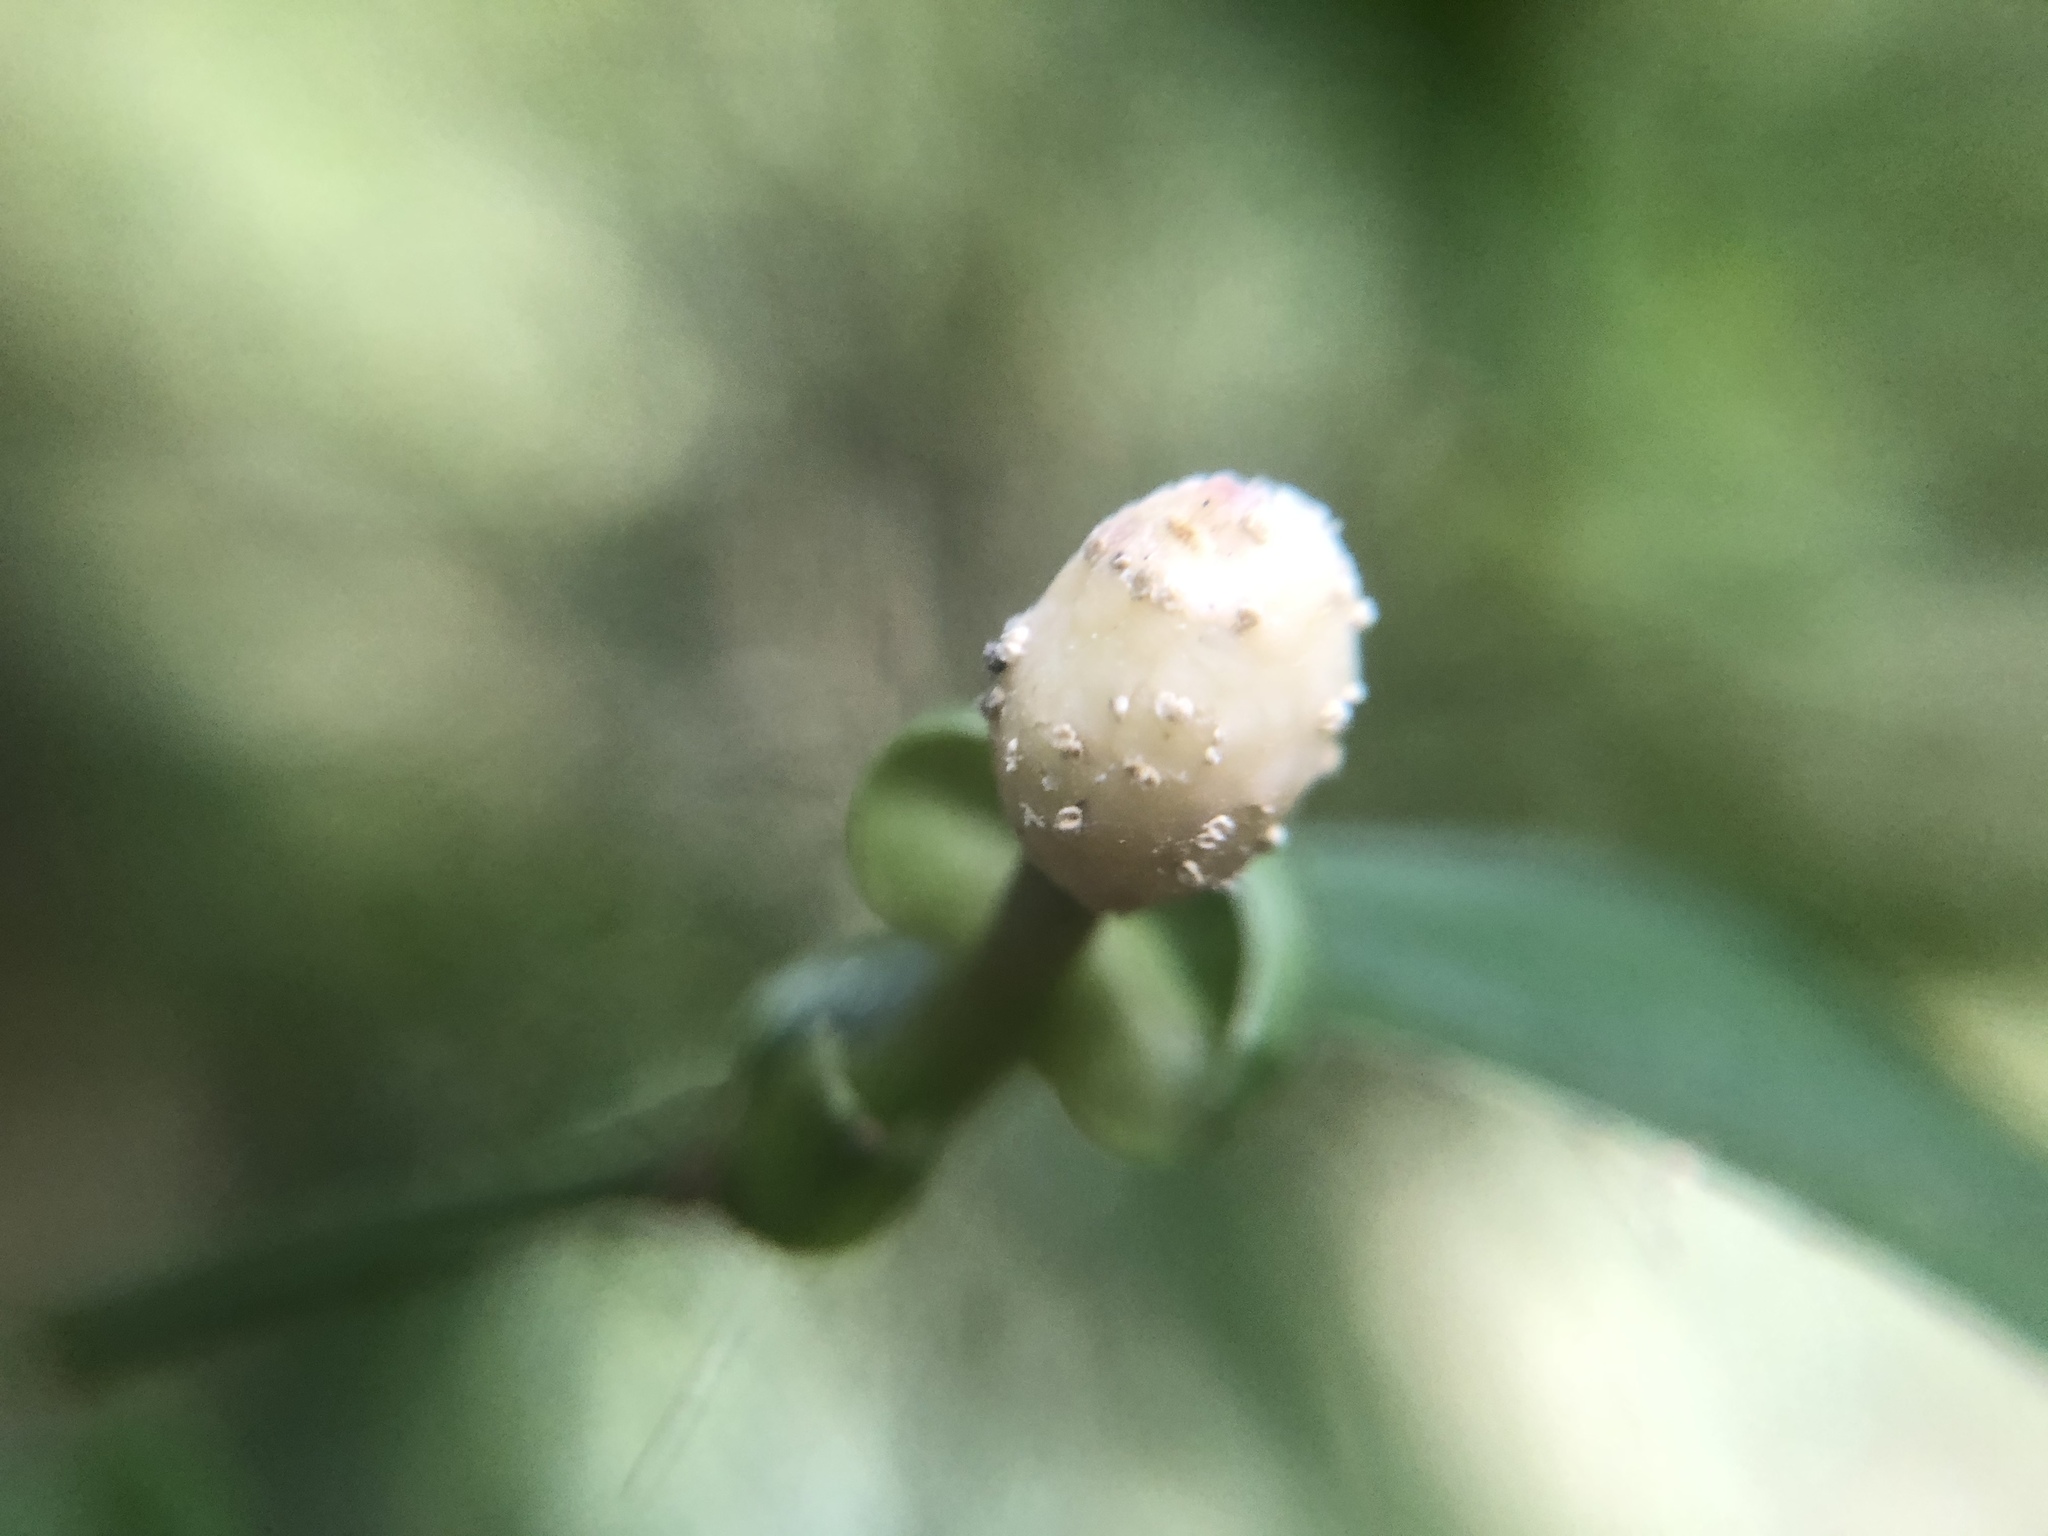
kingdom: Plantae
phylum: Tracheophyta
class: Liliopsida
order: Alismatales
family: Araceae
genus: Pothos
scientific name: Pothos chinensis
